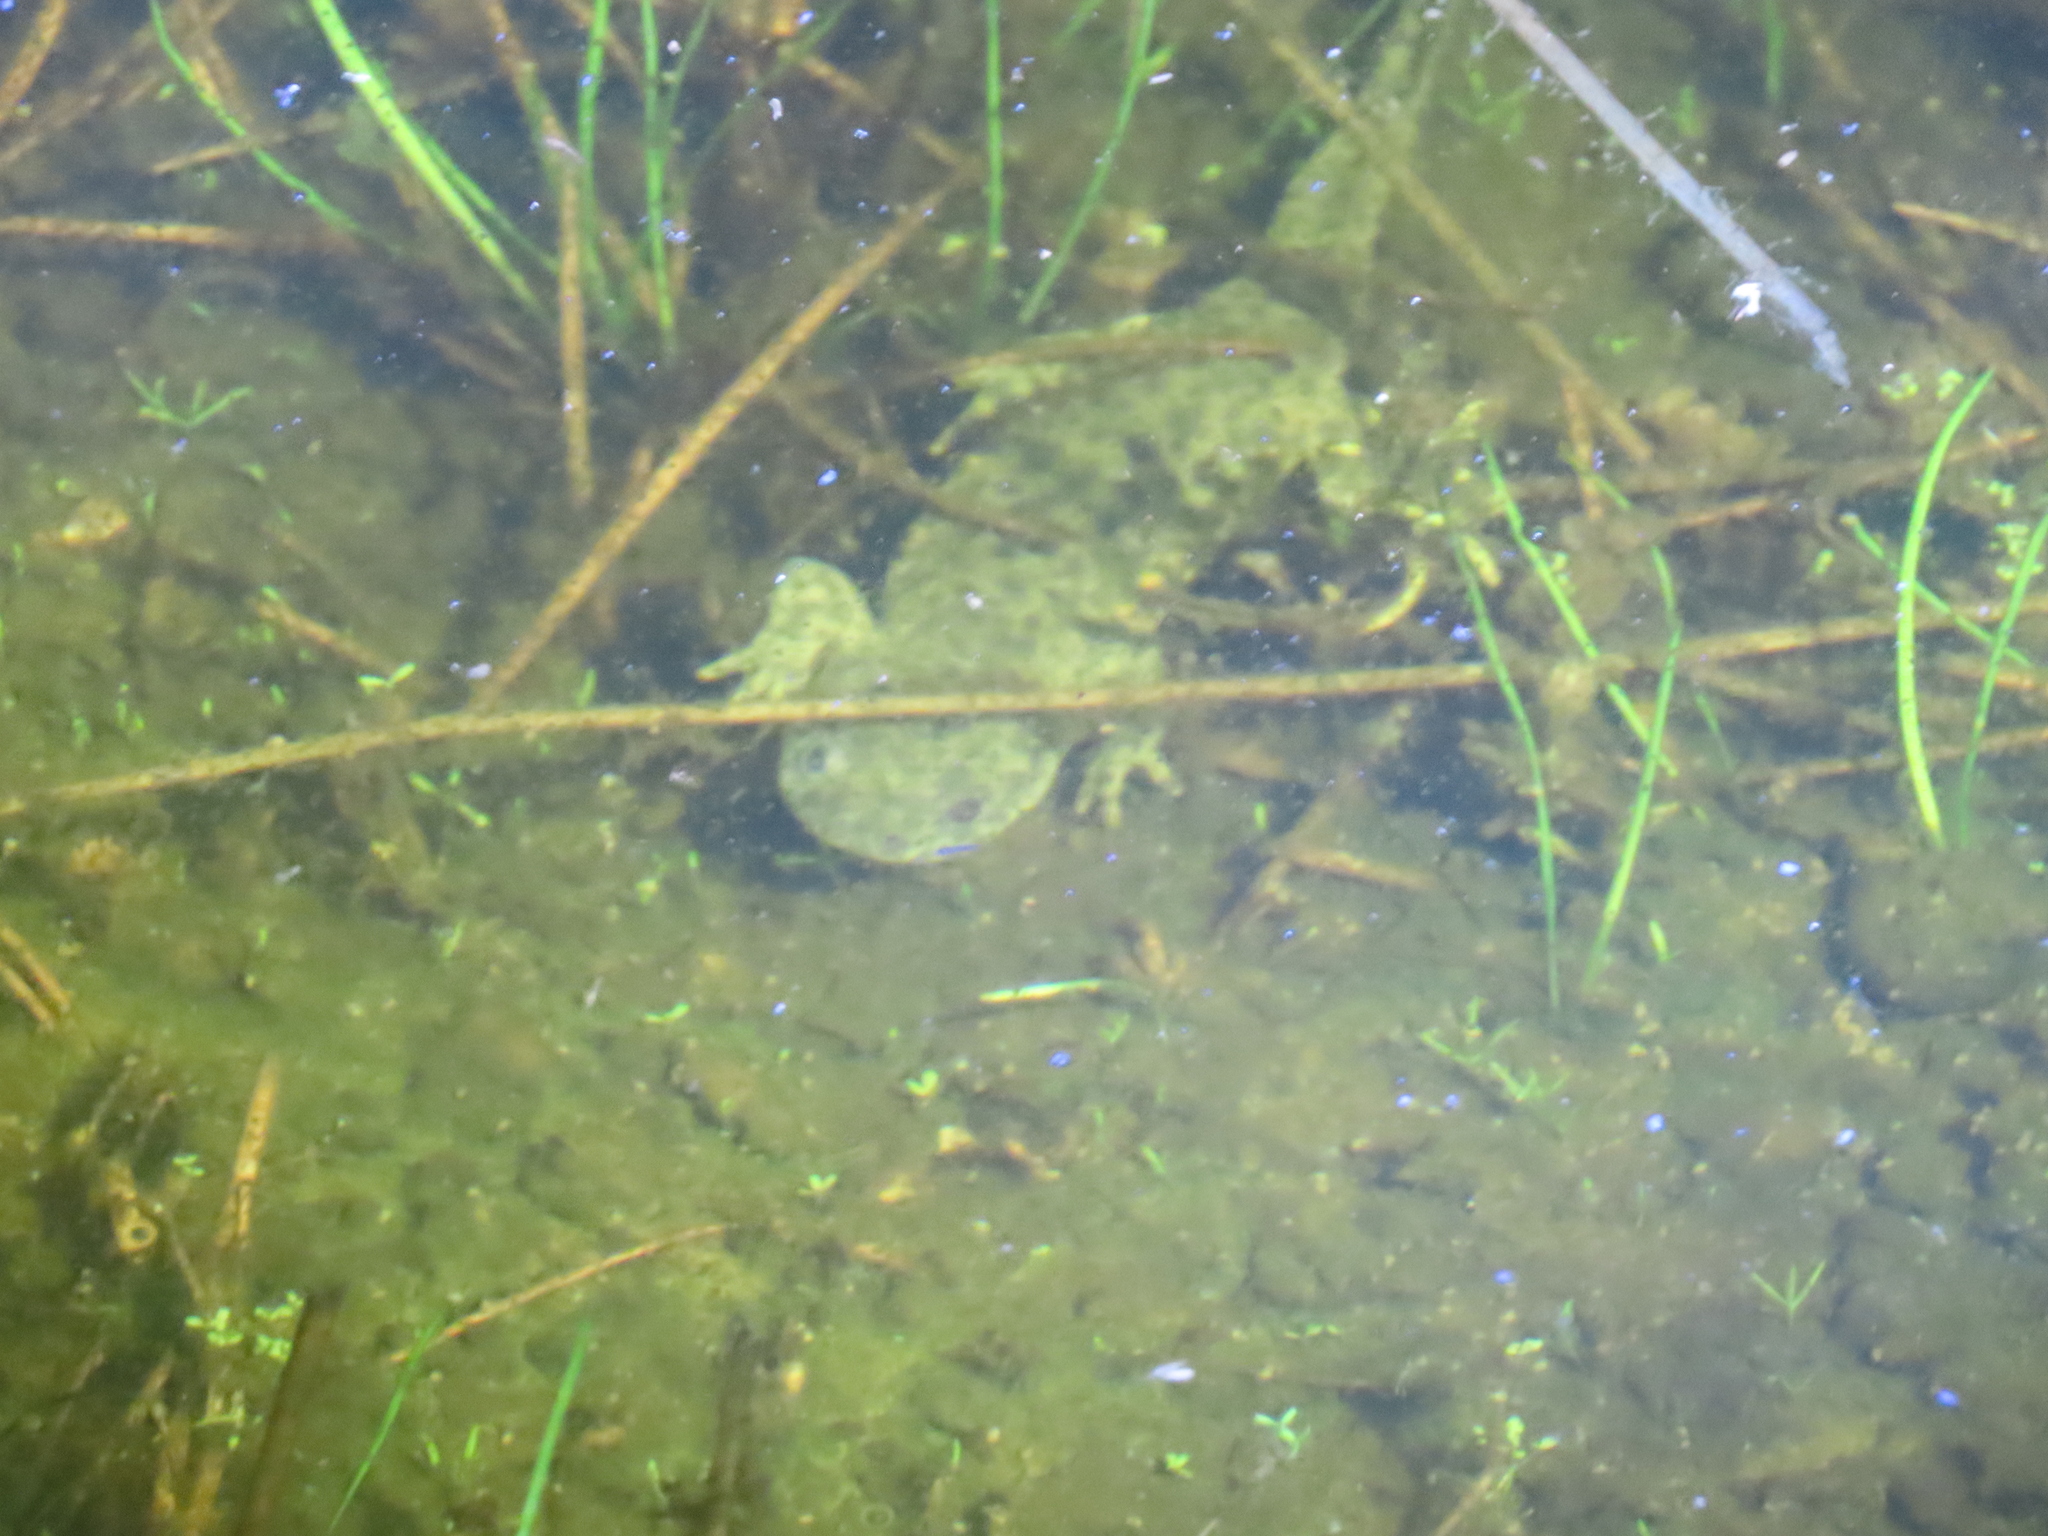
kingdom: Animalia
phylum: Chordata
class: Amphibia
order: Caudata
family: Salamandridae
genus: Pleurodeles
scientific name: Pleurodeles waltl
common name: Iberian ribbed newt
